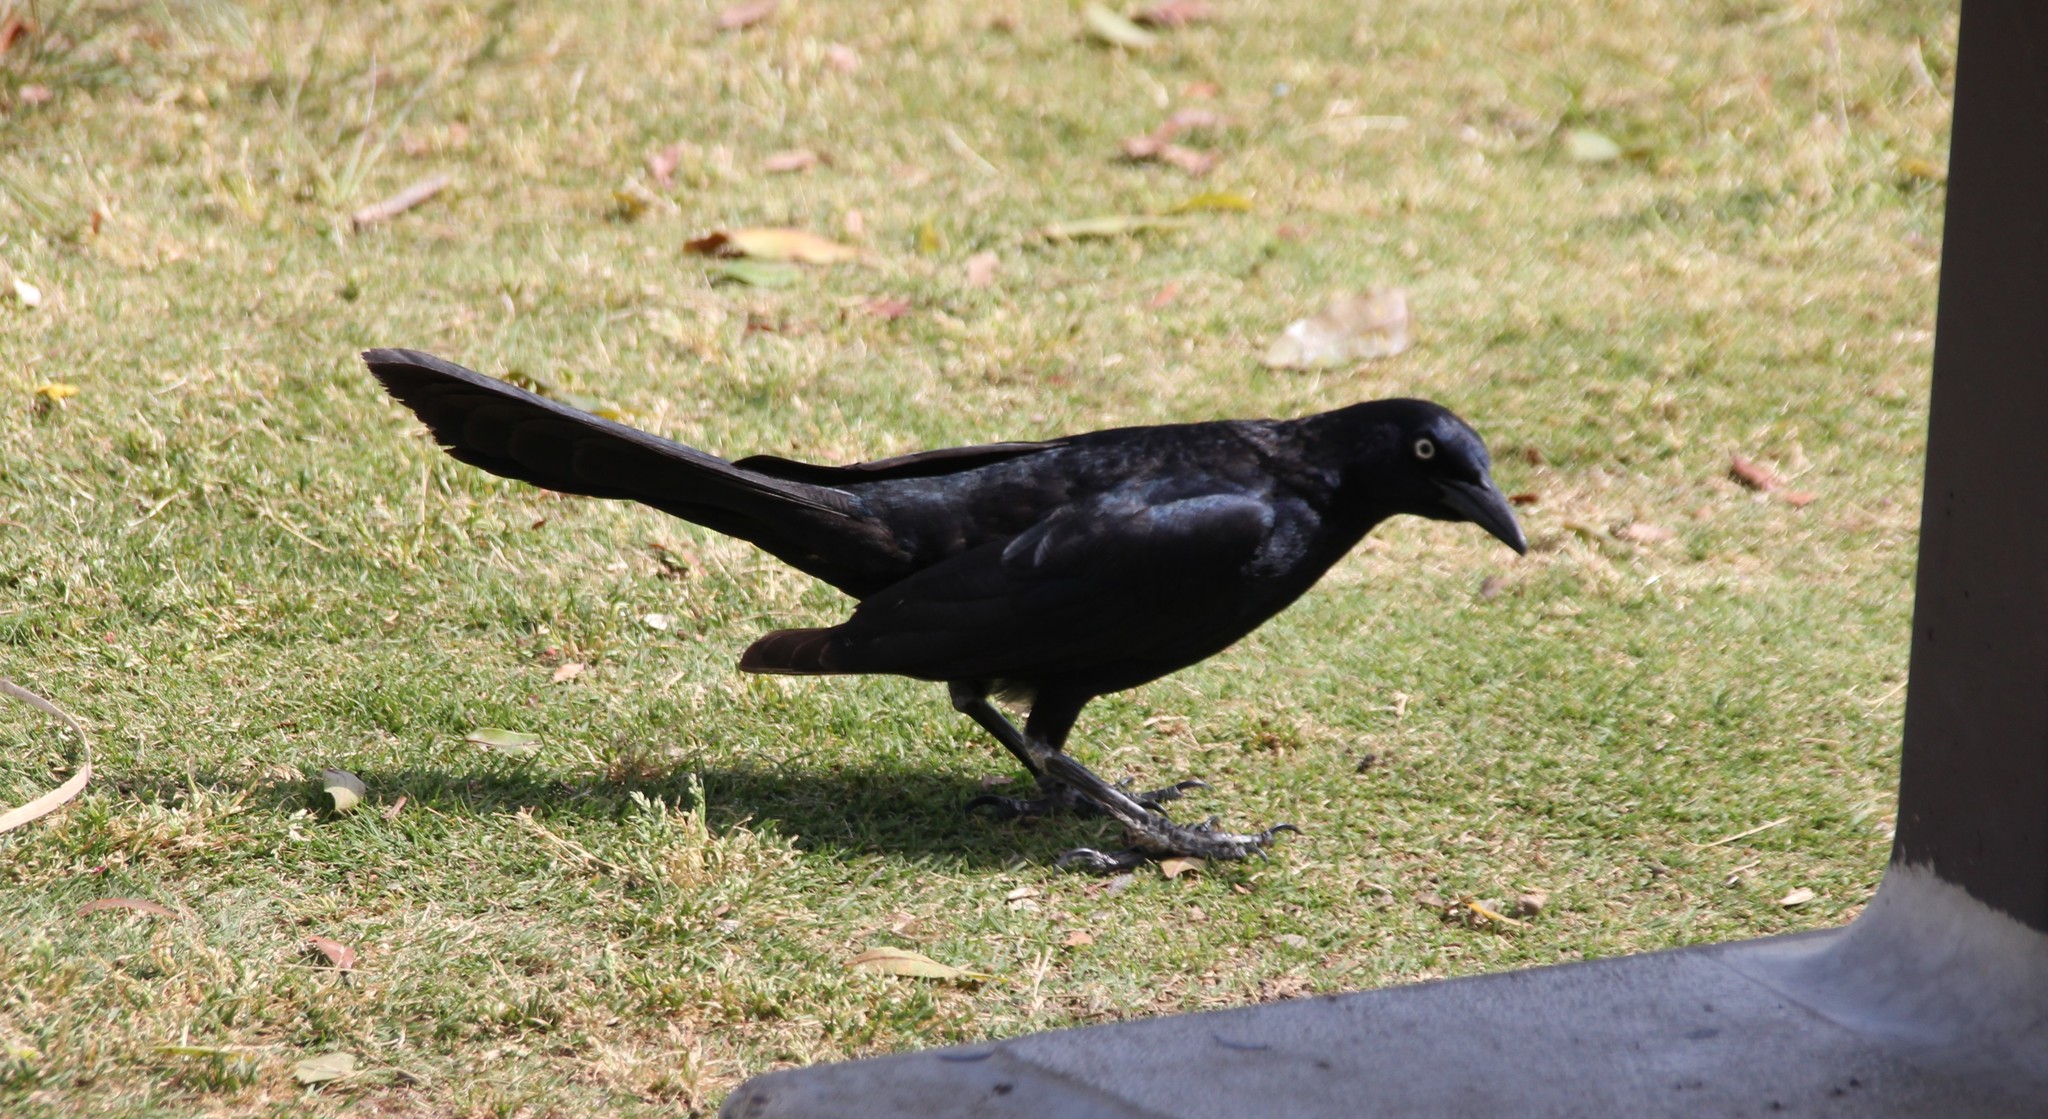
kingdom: Animalia
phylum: Chordata
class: Aves
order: Passeriformes
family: Icteridae
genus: Quiscalus
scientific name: Quiscalus mexicanus
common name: Great-tailed grackle
